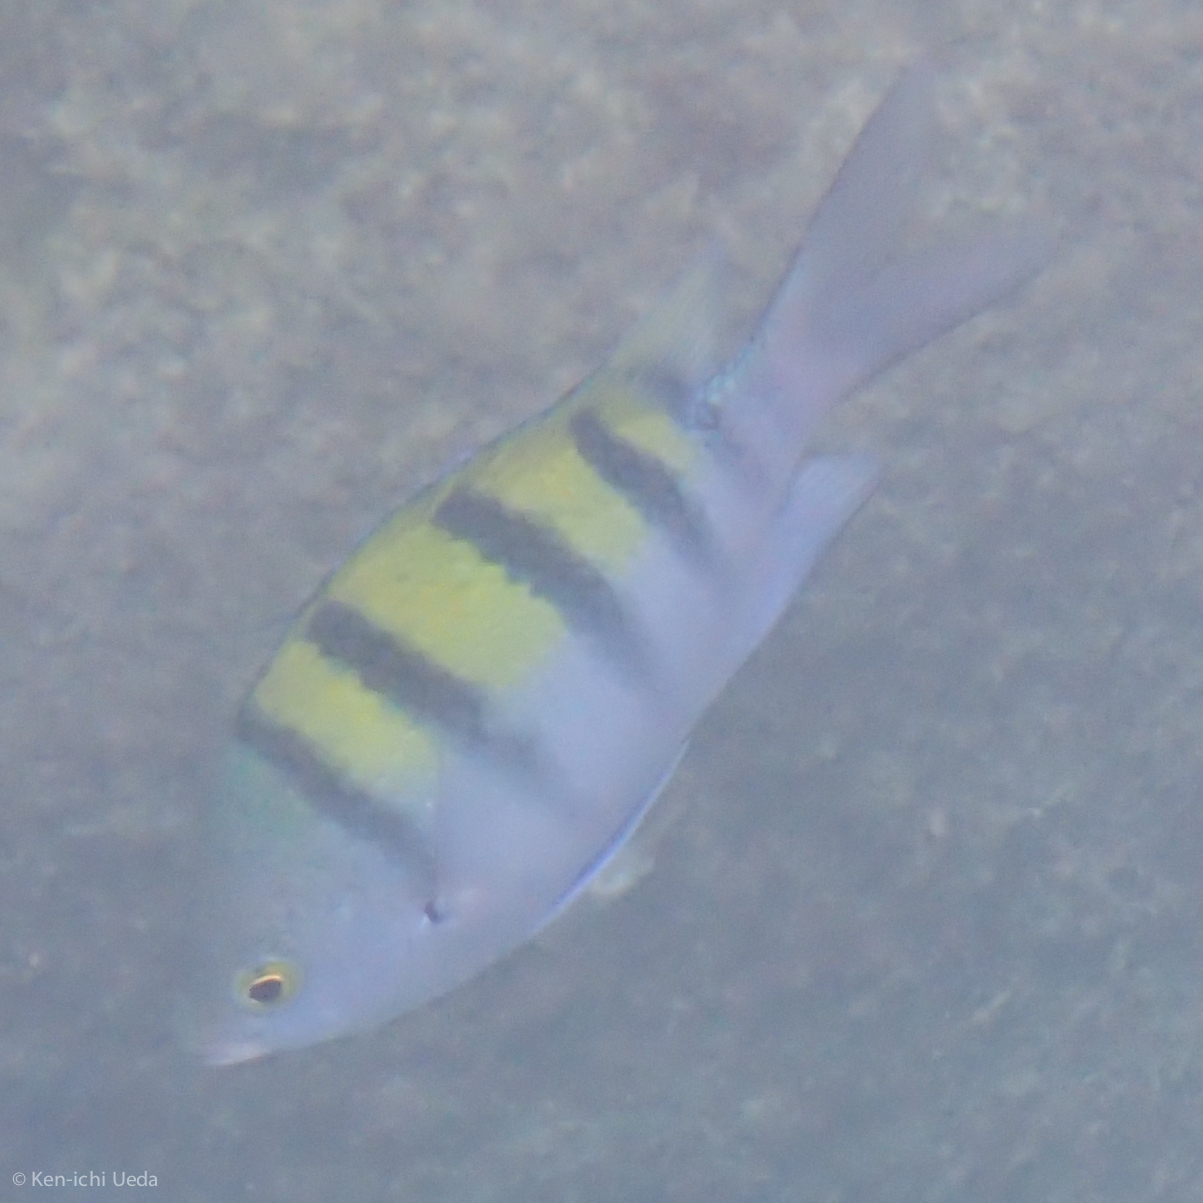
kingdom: Animalia
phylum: Chordata
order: Perciformes
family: Pomacentridae
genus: Abudefduf
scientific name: Abudefduf troschelii
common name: Panamic sergeant major
